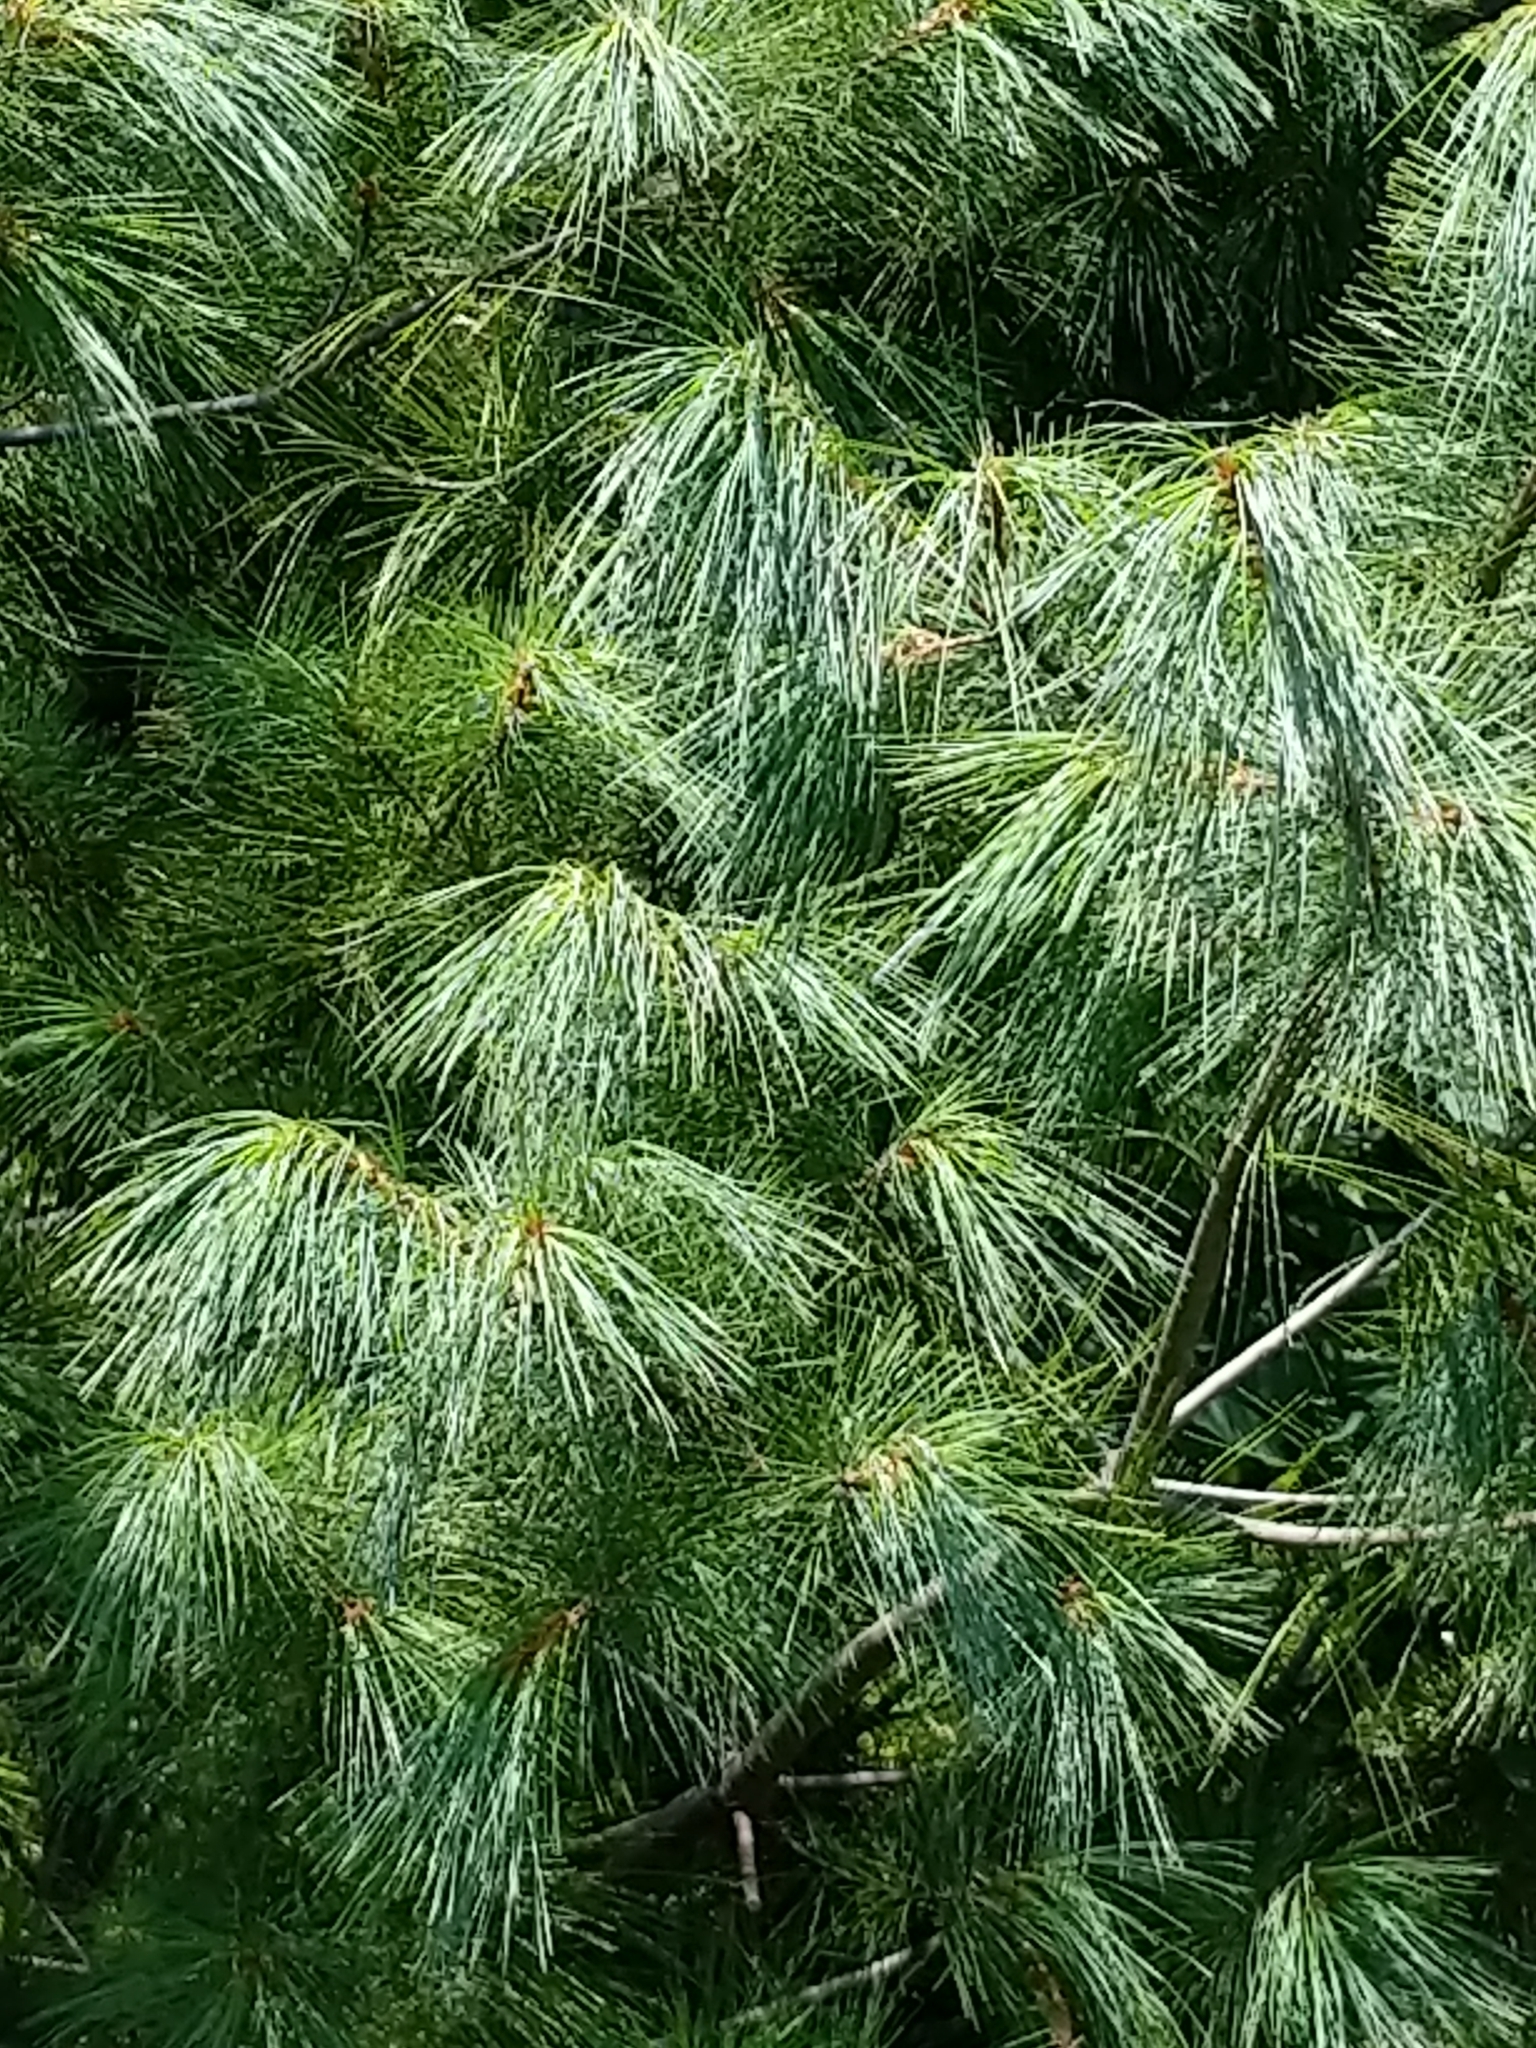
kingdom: Plantae
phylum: Tracheophyta
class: Pinopsida
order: Pinales
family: Pinaceae
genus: Pinus
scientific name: Pinus strobus
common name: Weymouth pine
